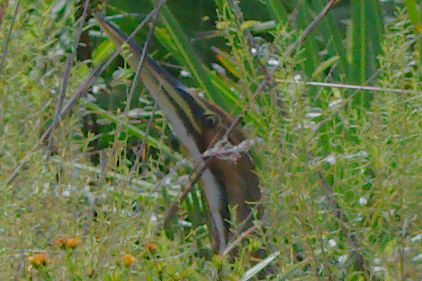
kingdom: Animalia
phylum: Chordata
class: Aves
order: Pelecaniformes
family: Ardeidae
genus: Botaurus
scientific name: Botaurus lentiginosus
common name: American bittern
